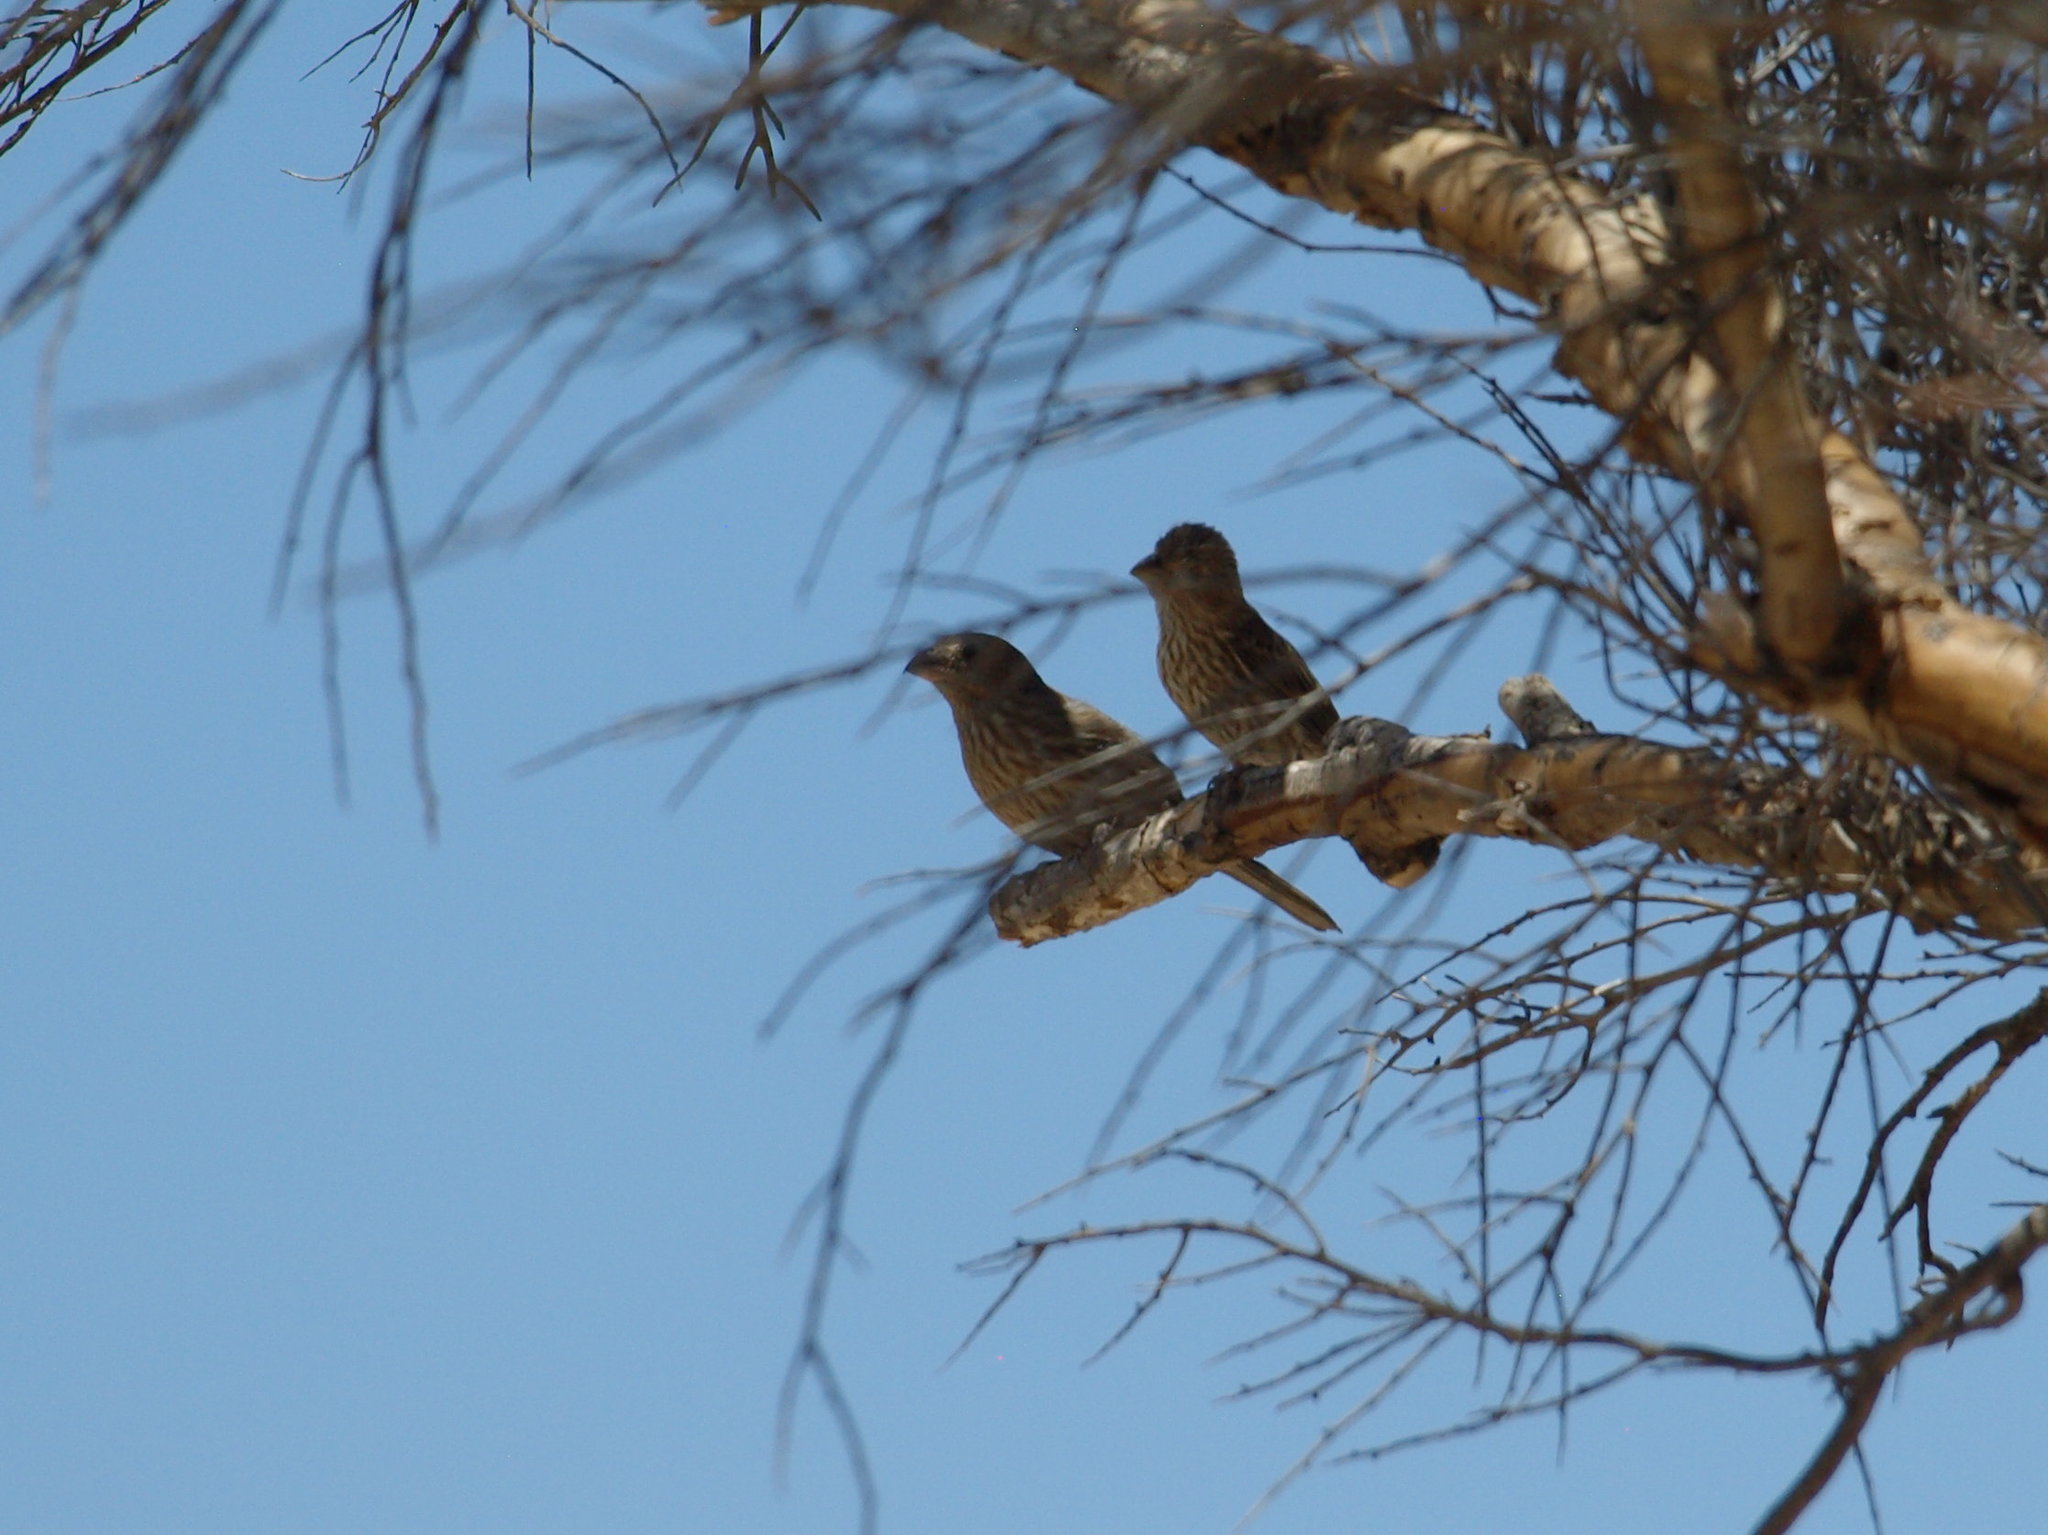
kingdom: Animalia
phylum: Chordata
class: Aves
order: Passeriformes
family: Fringillidae
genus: Haemorhous
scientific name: Haemorhous mexicanus
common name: House finch
